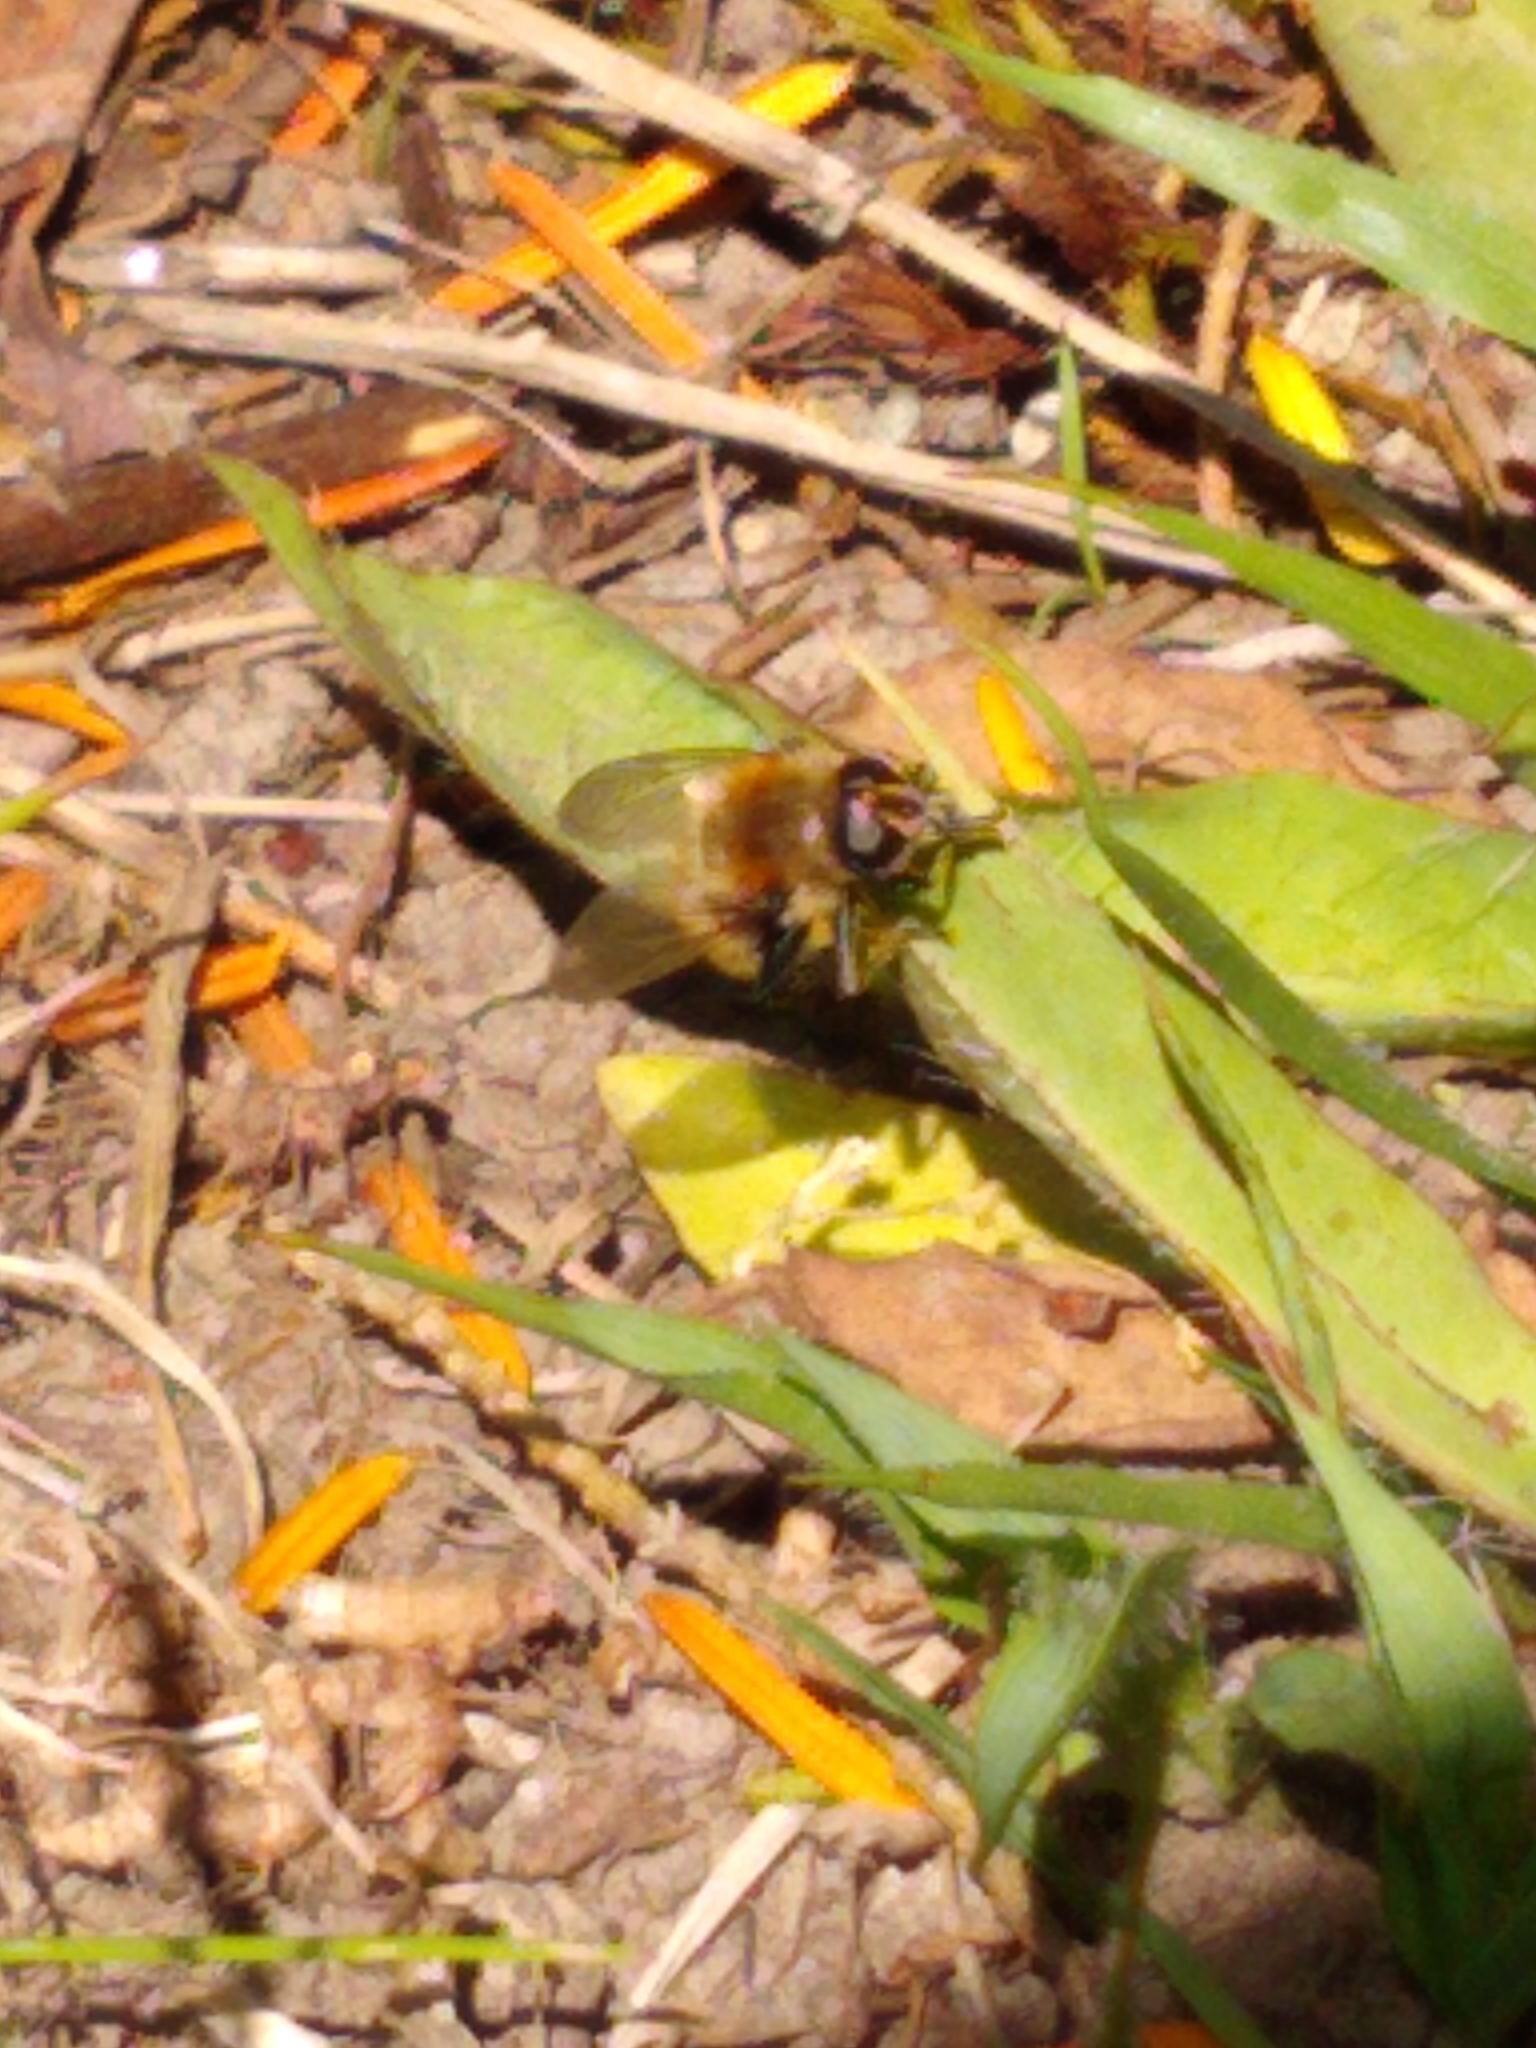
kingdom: Animalia
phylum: Arthropoda
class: Insecta
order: Diptera
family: Syrphidae
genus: Merodon
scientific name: Merodon equestris
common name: Greater bulb-fly
